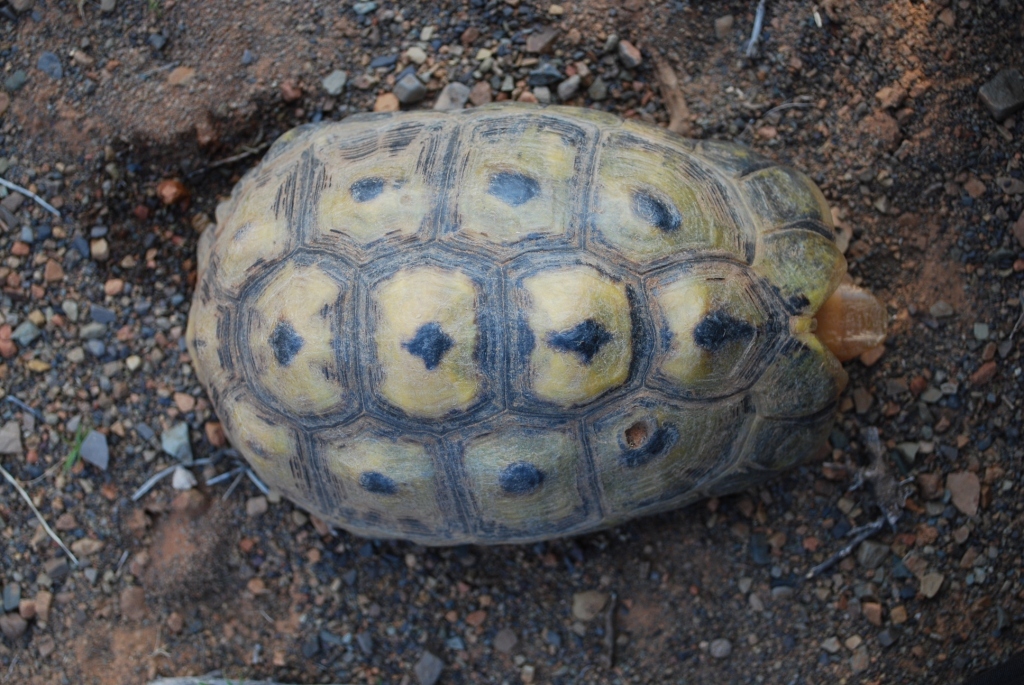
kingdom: Animalia
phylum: Chordata
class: Testudines
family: Testudinidae
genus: Chersina
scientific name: Chersina angulata
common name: South african bowsprit tortoise
